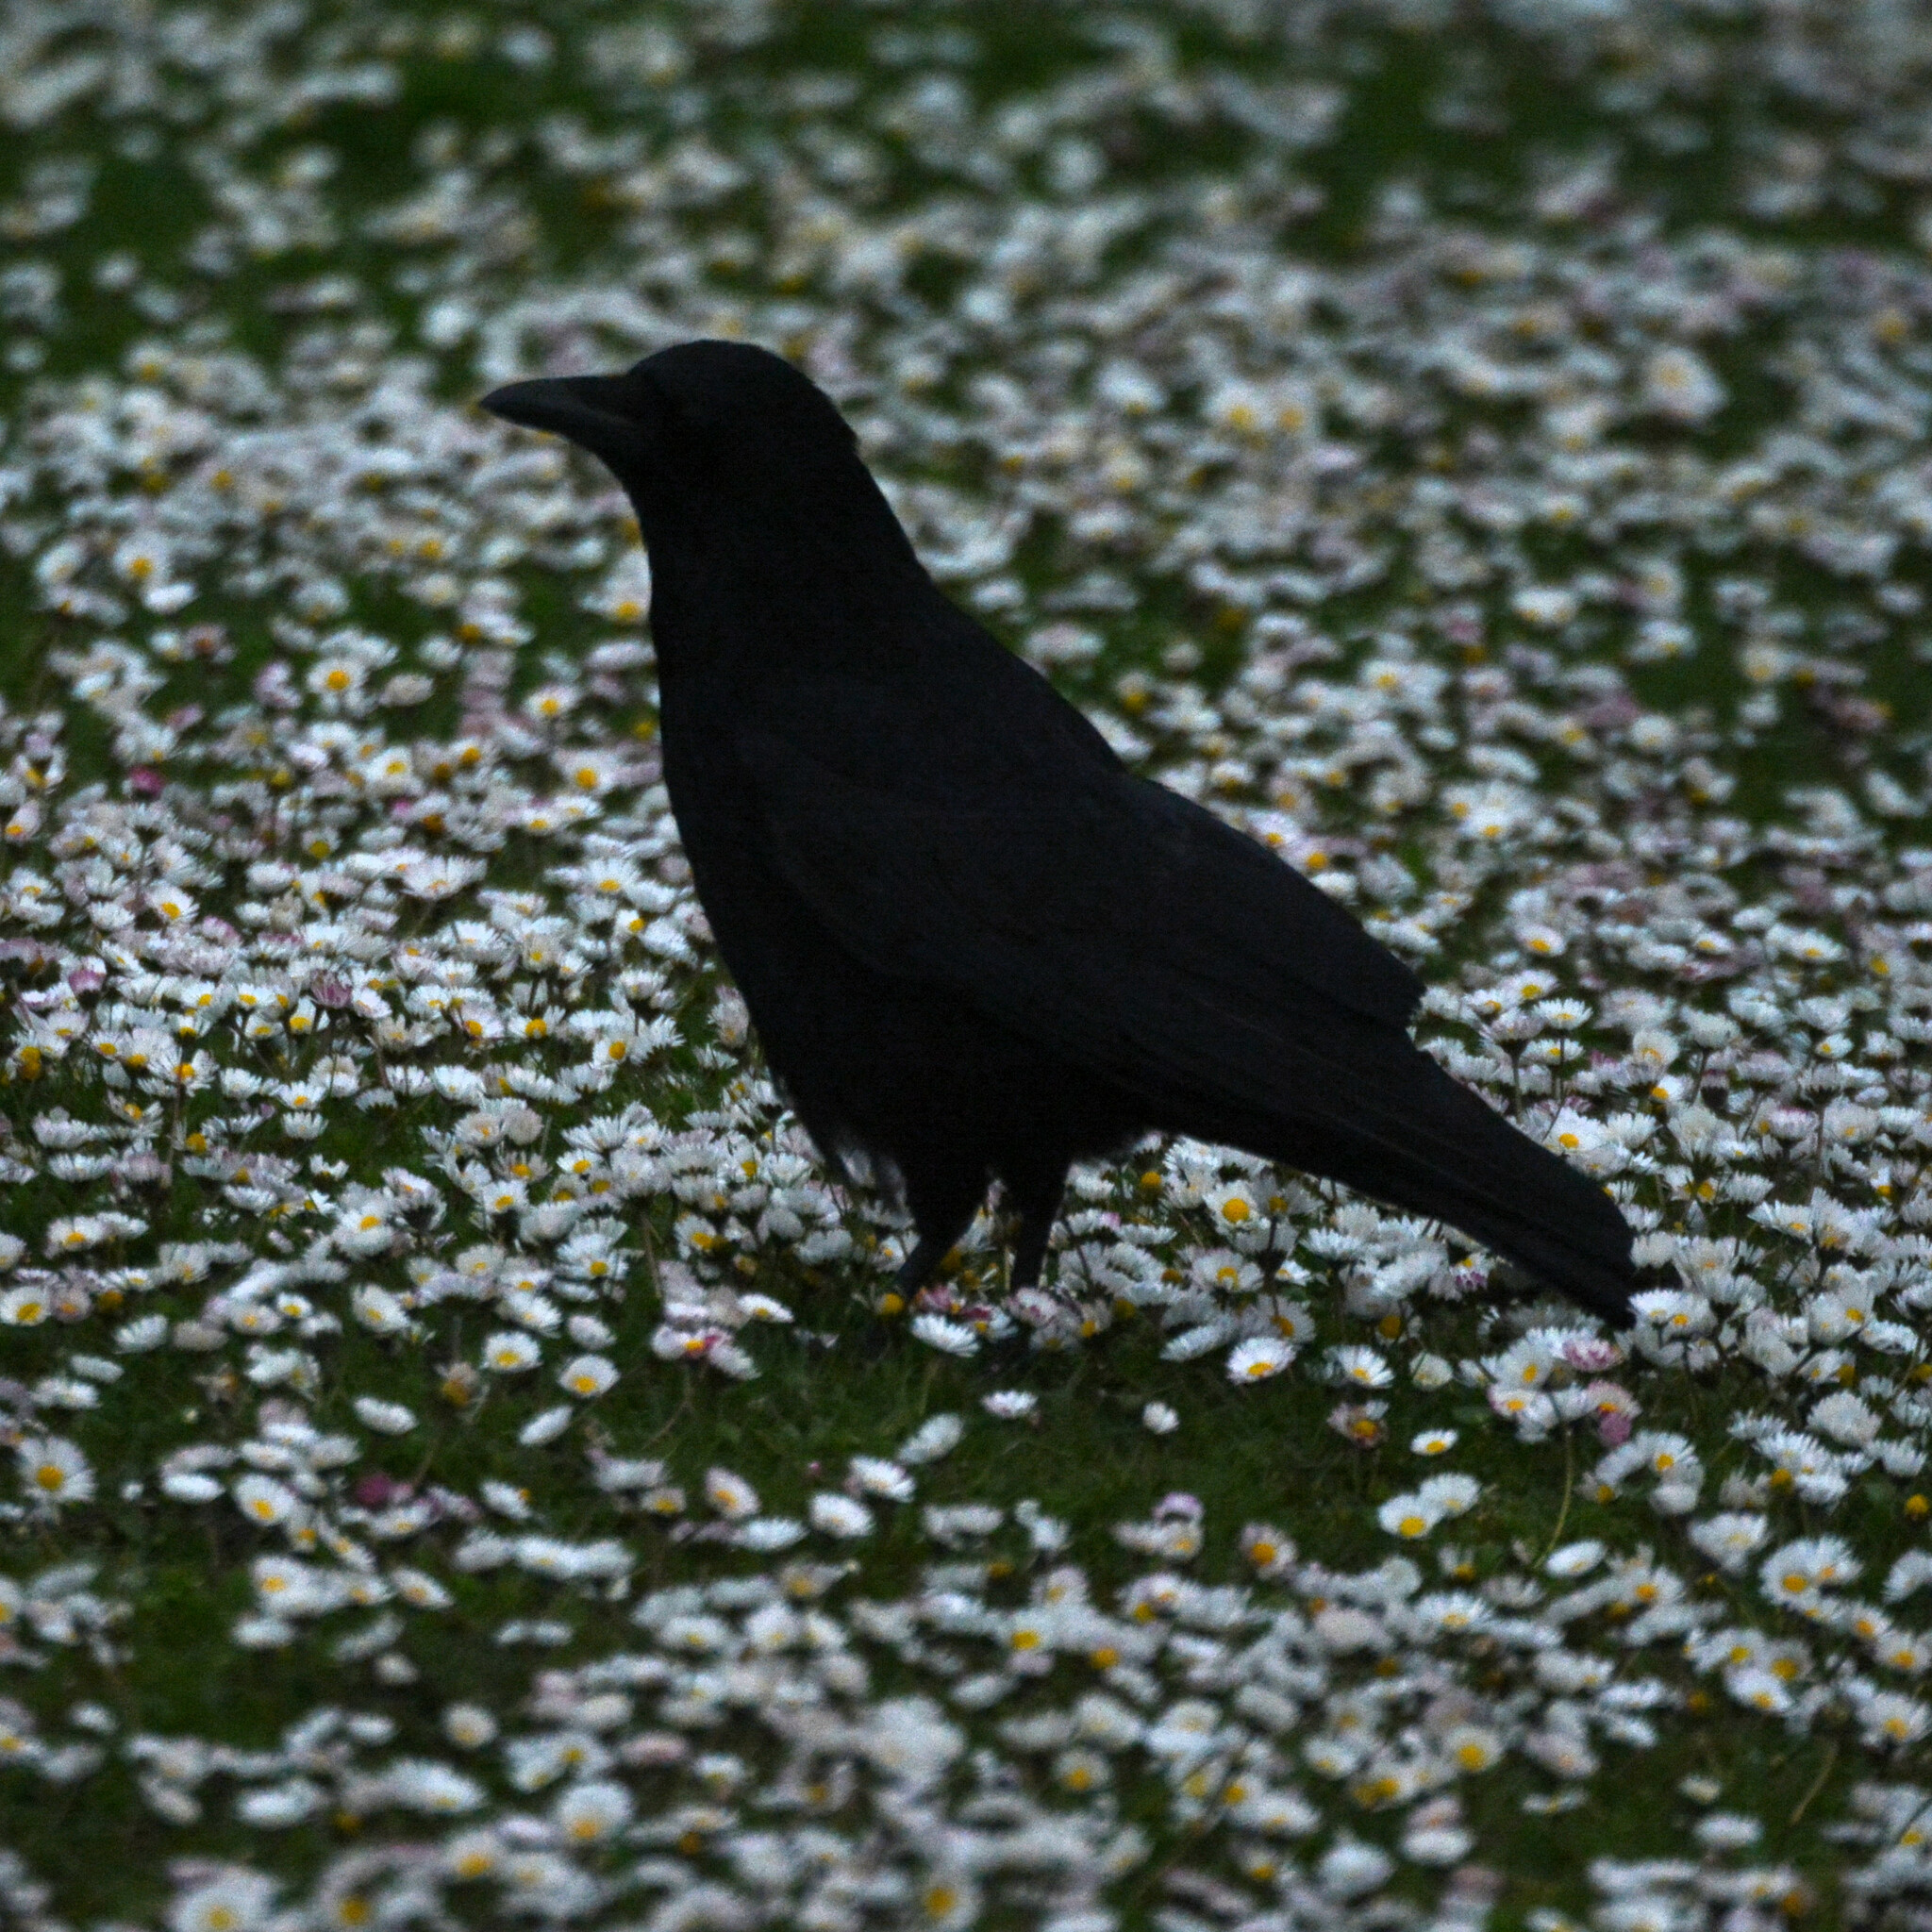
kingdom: Animalia
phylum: Chordata
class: Aves
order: Passeriformes
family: Corvidae
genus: Corvus
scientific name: Corvus corone
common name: Carrion crow
